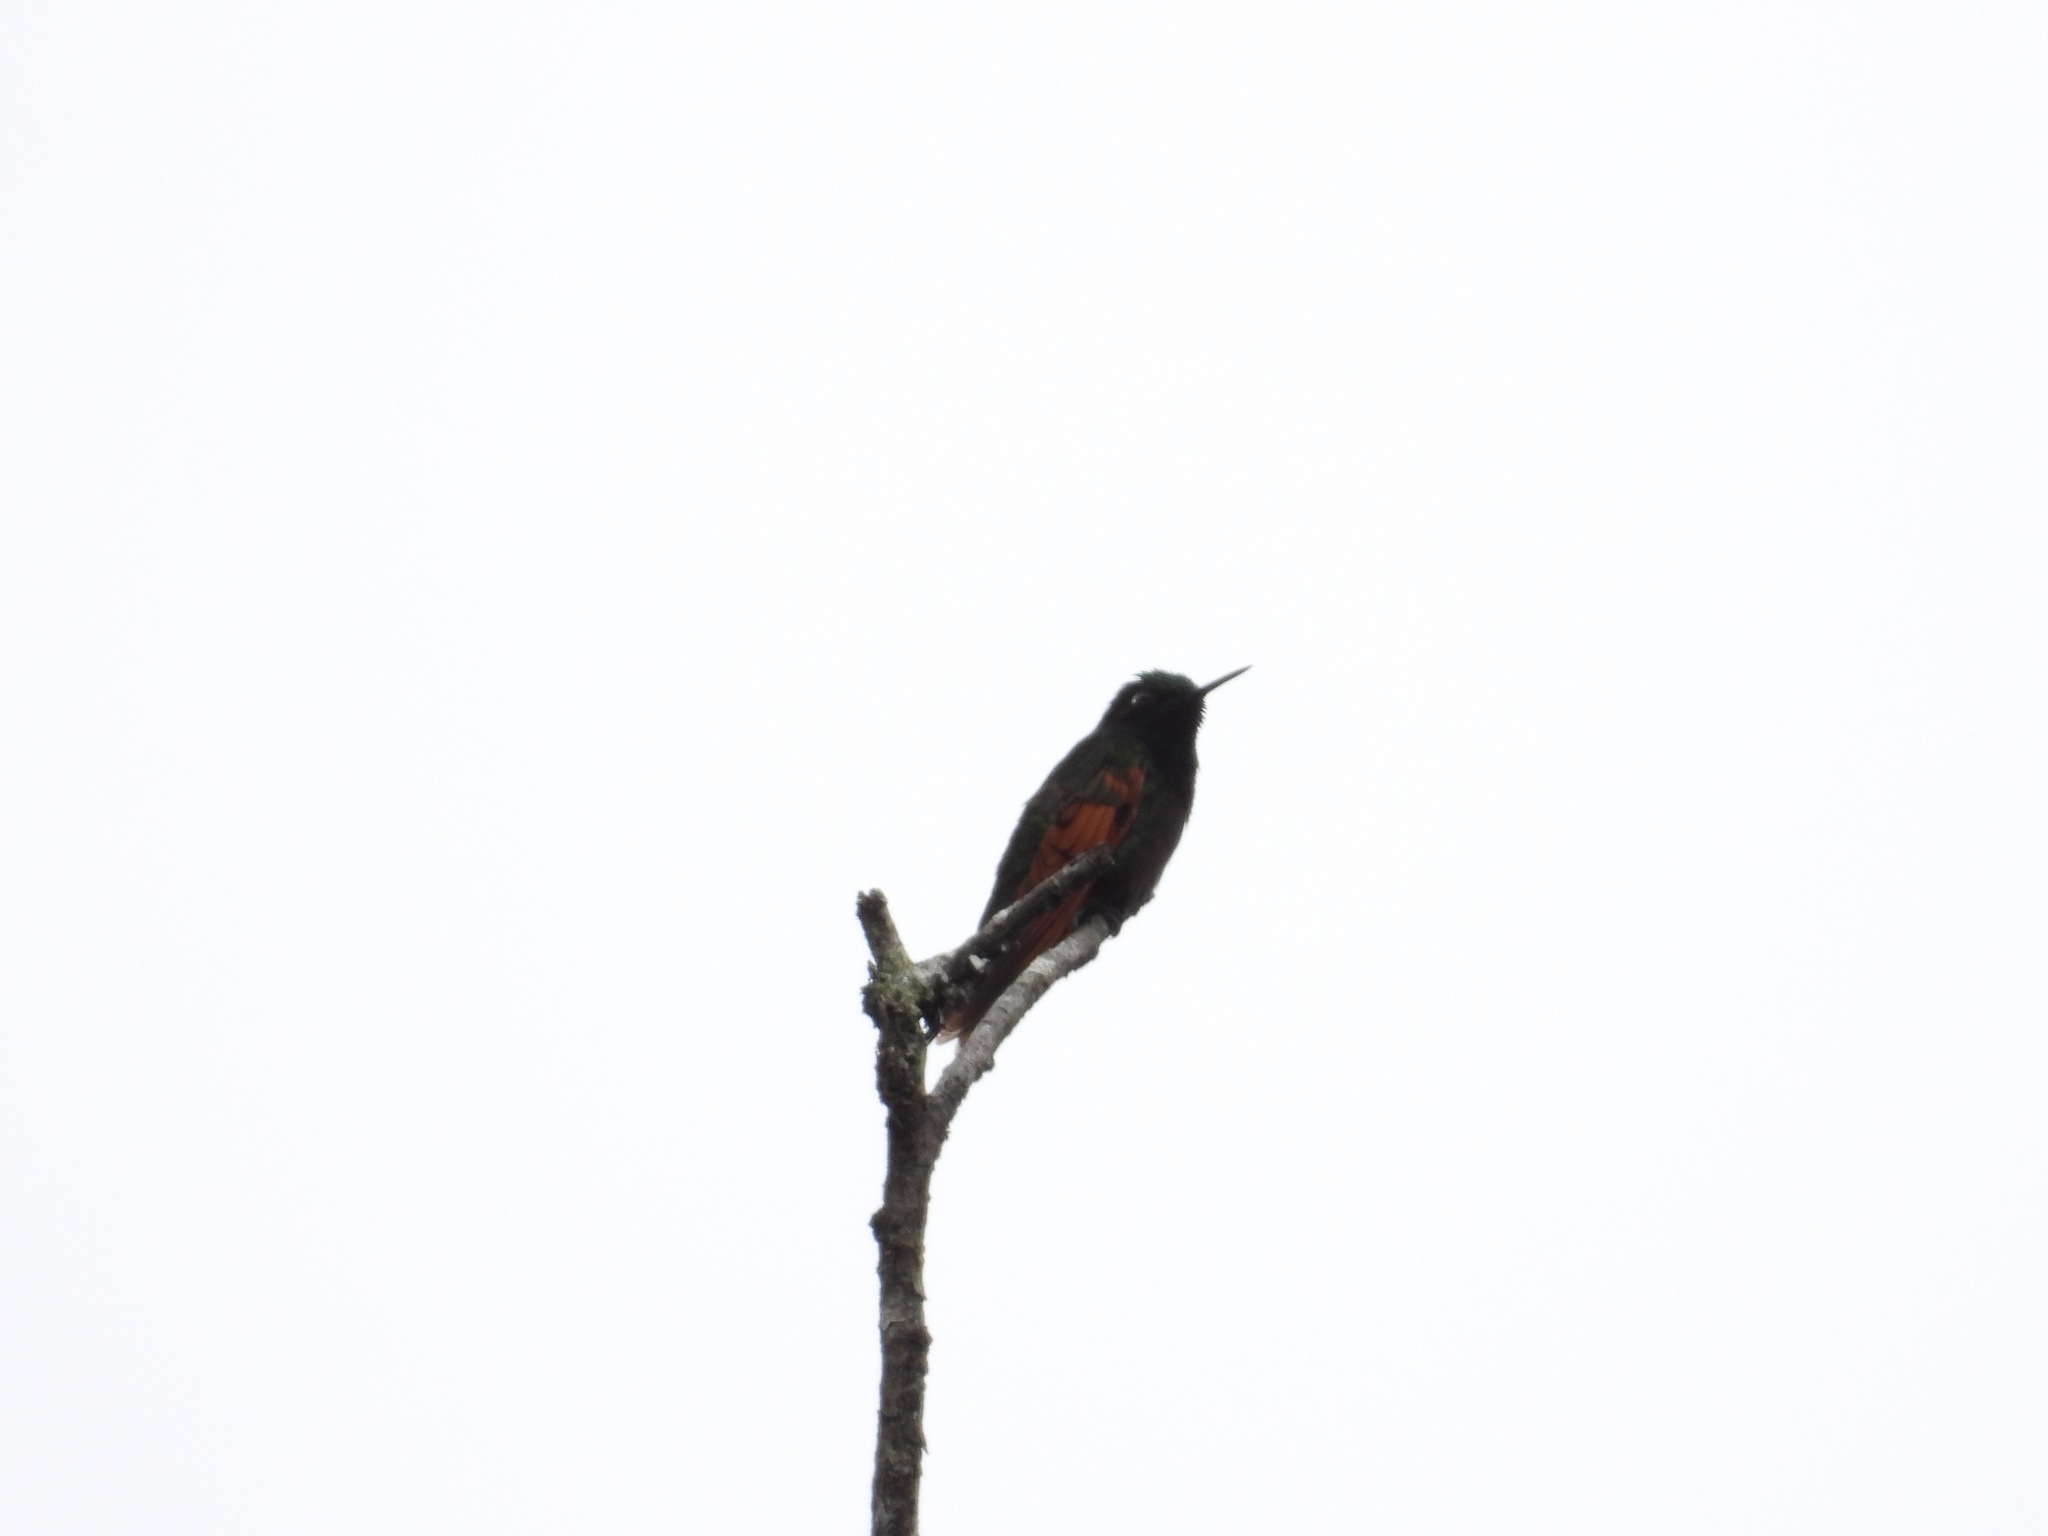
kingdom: Animalia
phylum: Chordata
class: Aves
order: Apodiformes
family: Trochilidae
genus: Lamprolaima
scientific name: Lamprolaima rhami
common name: Garnet-throated hummingbird
